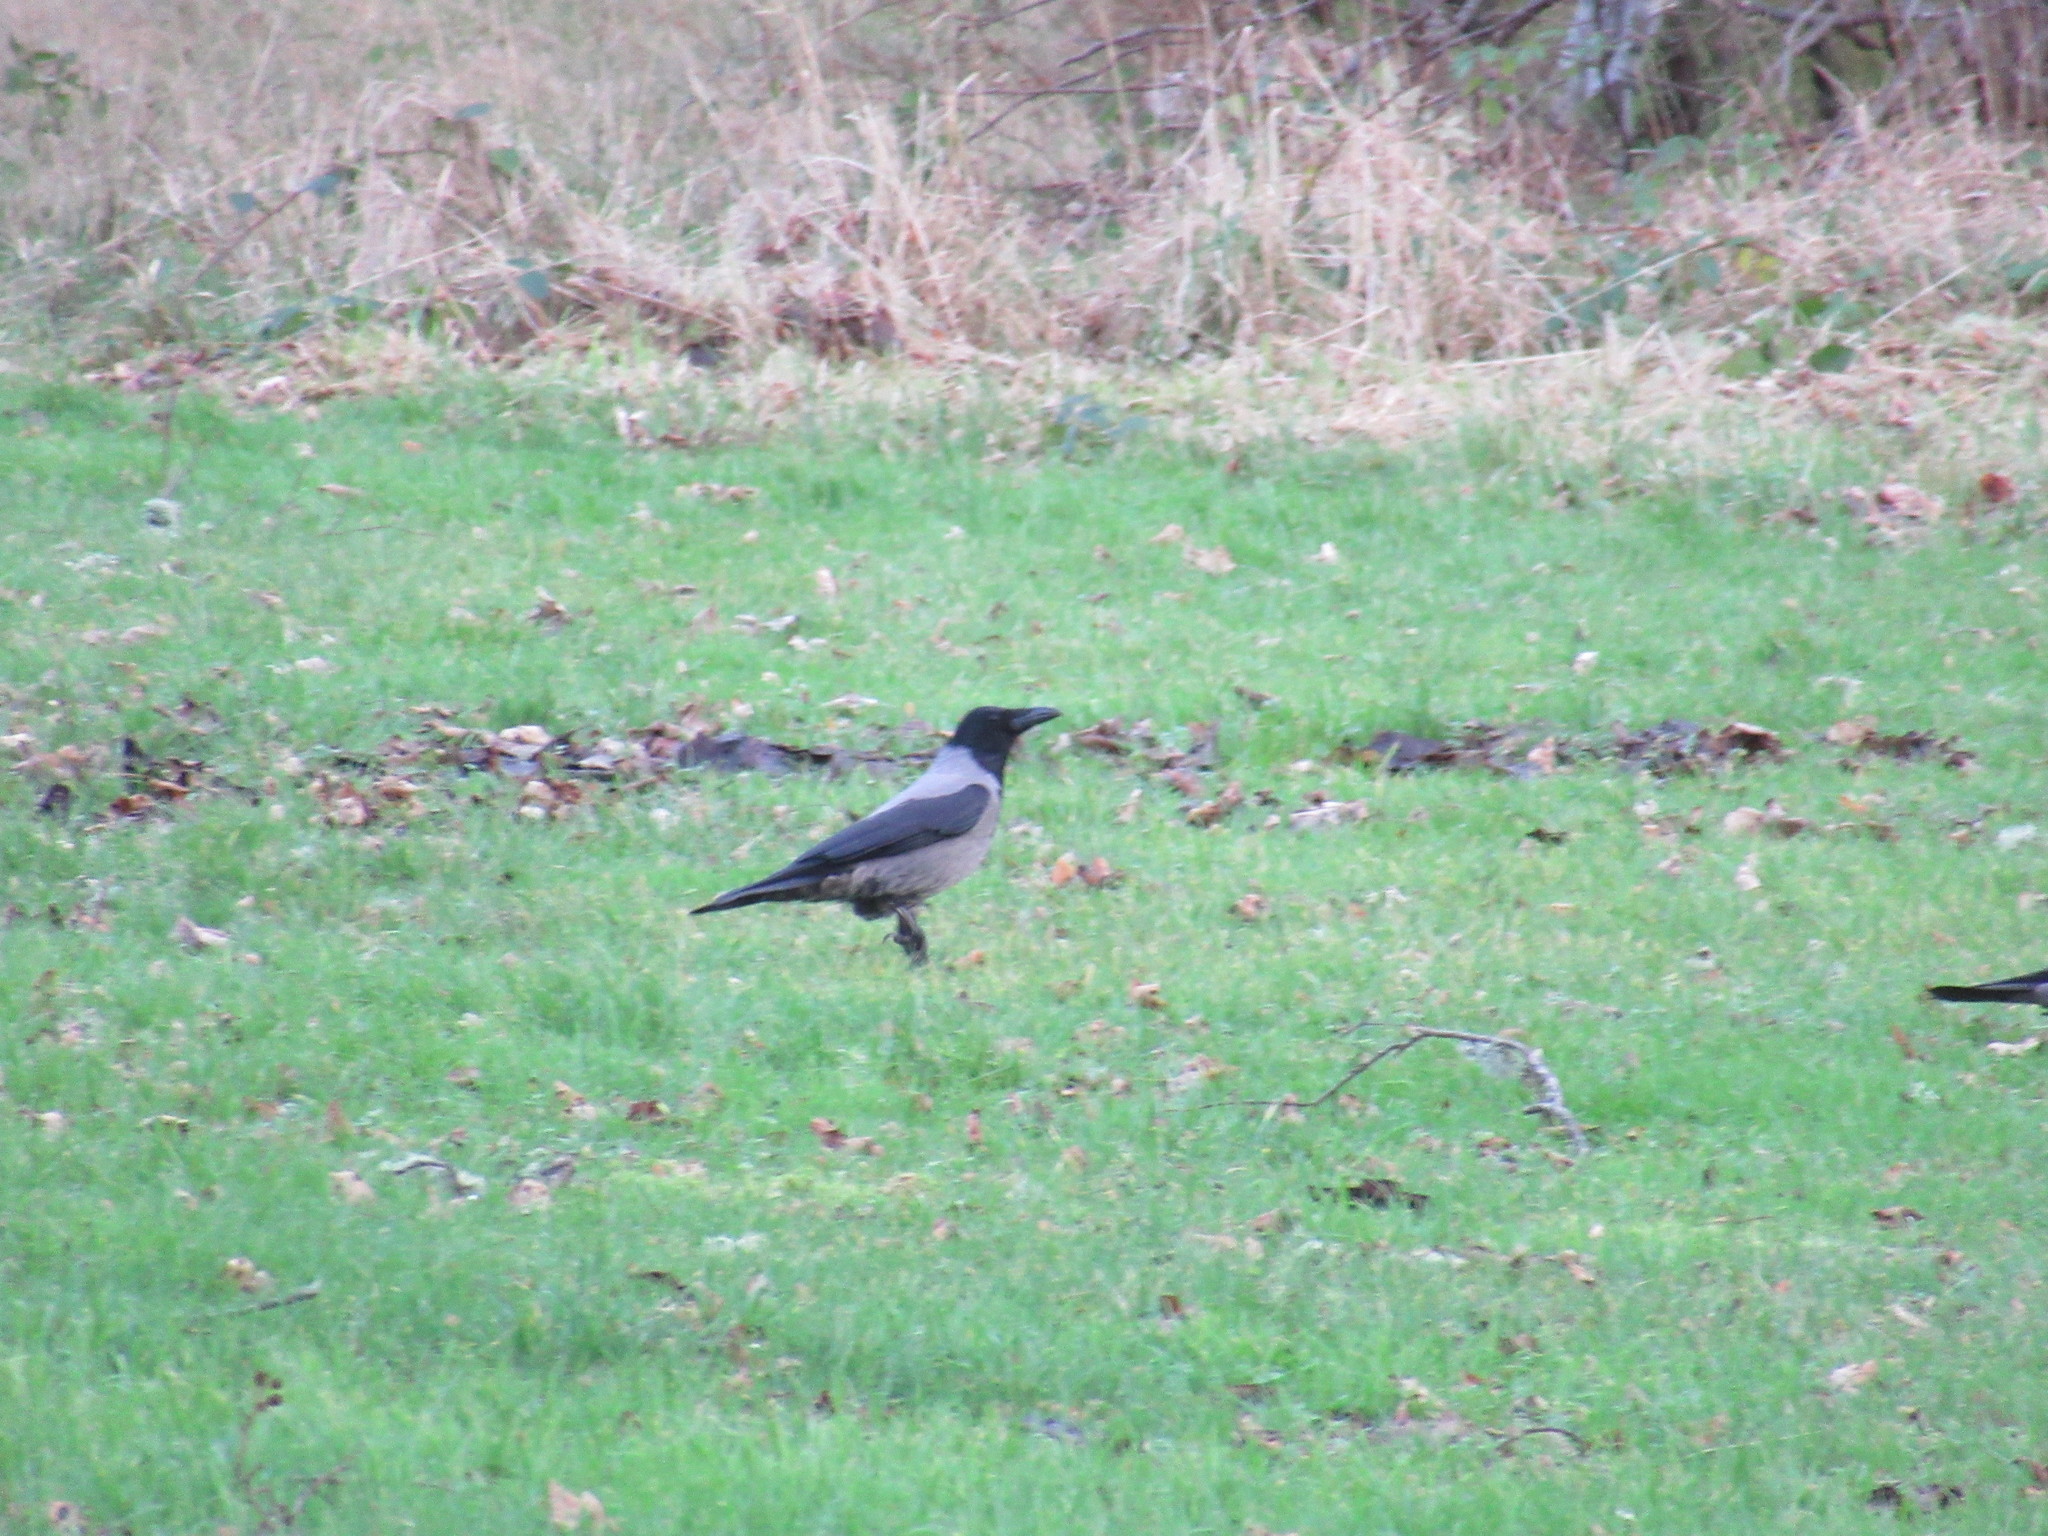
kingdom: Animalia
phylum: Chordata
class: Aves
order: Passeriformes
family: Corvidae
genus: Corvus
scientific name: Corvus cornix
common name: Hooded crow
